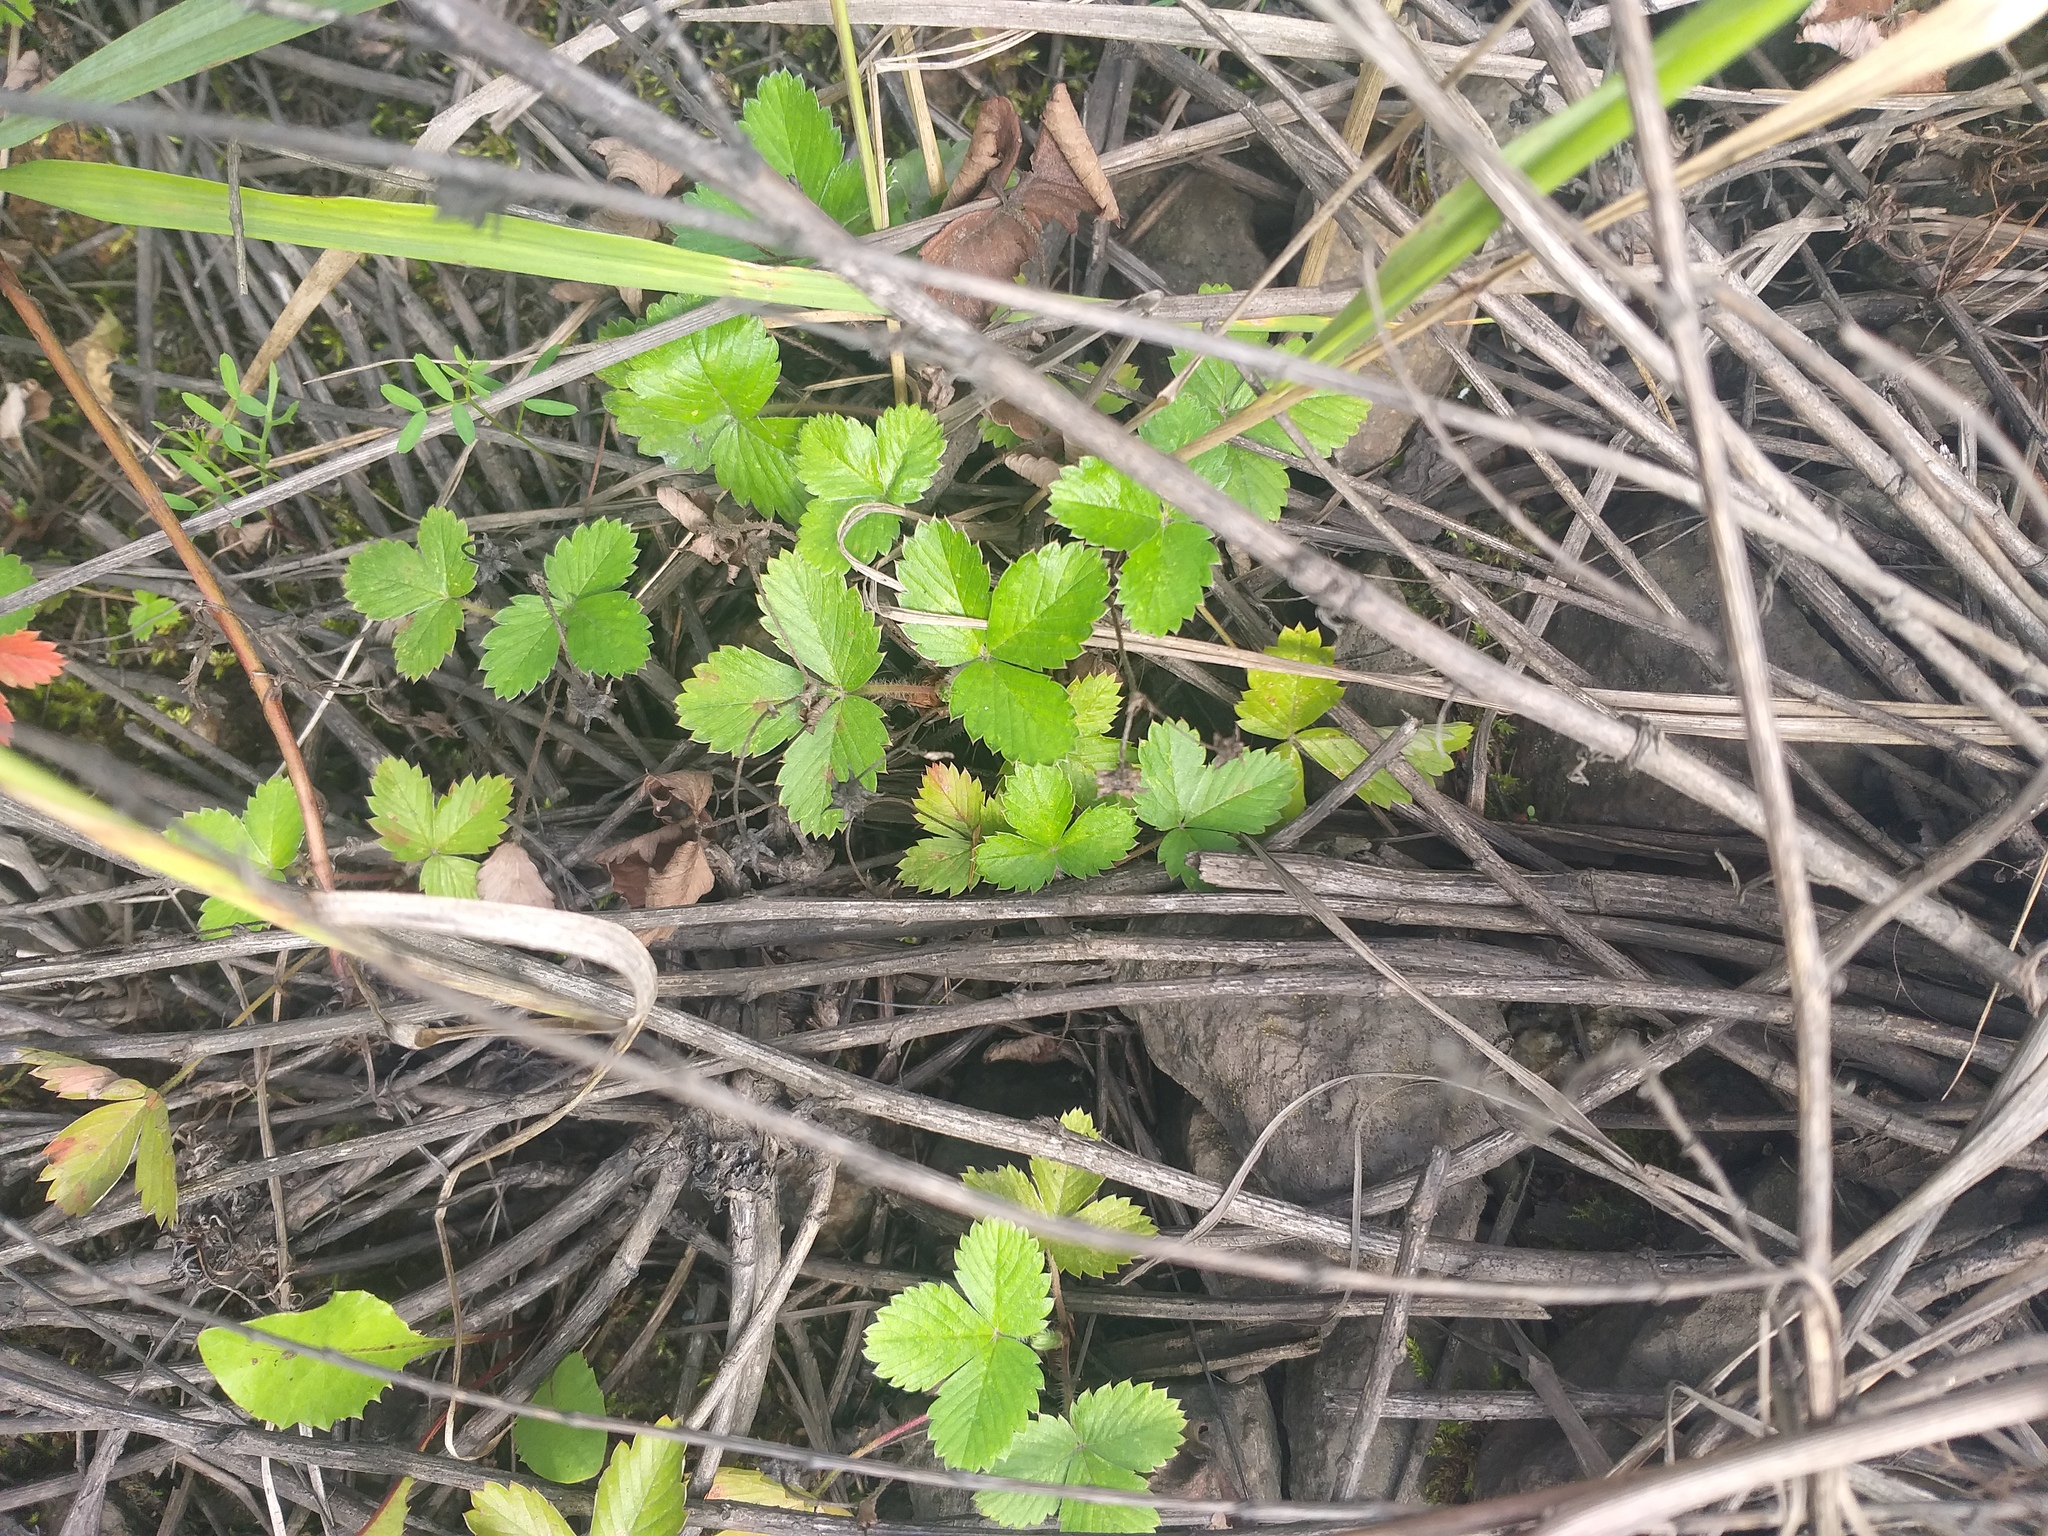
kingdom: Plantae
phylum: Tracheophyta
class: Magnoliopsida
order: Rosales
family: Rosaceae
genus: Fragaria
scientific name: Fragaria vesca
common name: Wild strawberry
